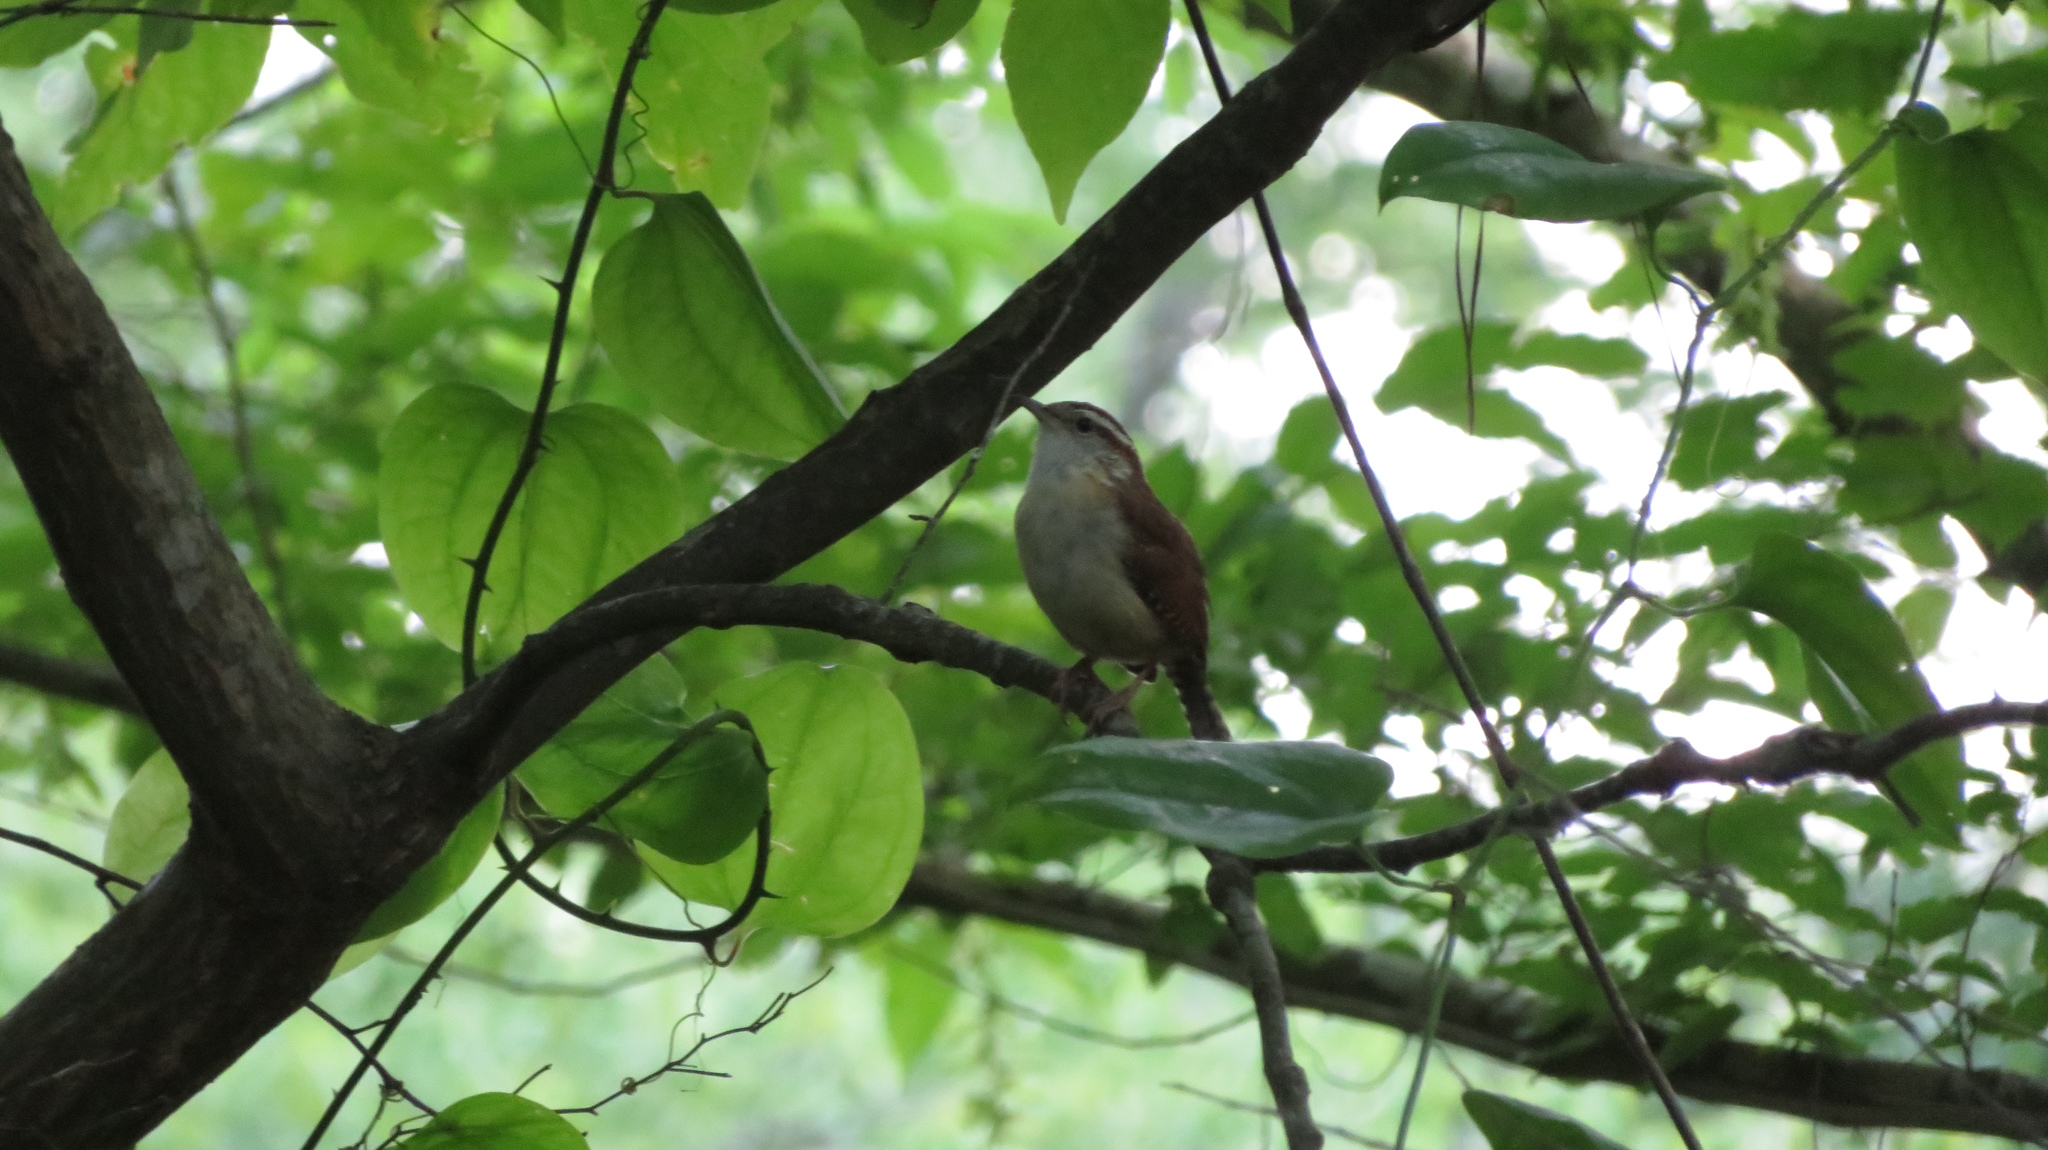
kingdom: Animalia
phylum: Chordata
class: Aves
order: Passeriformes
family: Troglodytidae
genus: Thryothorus
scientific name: Thryothorus ludovicianus
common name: Carolina wren
